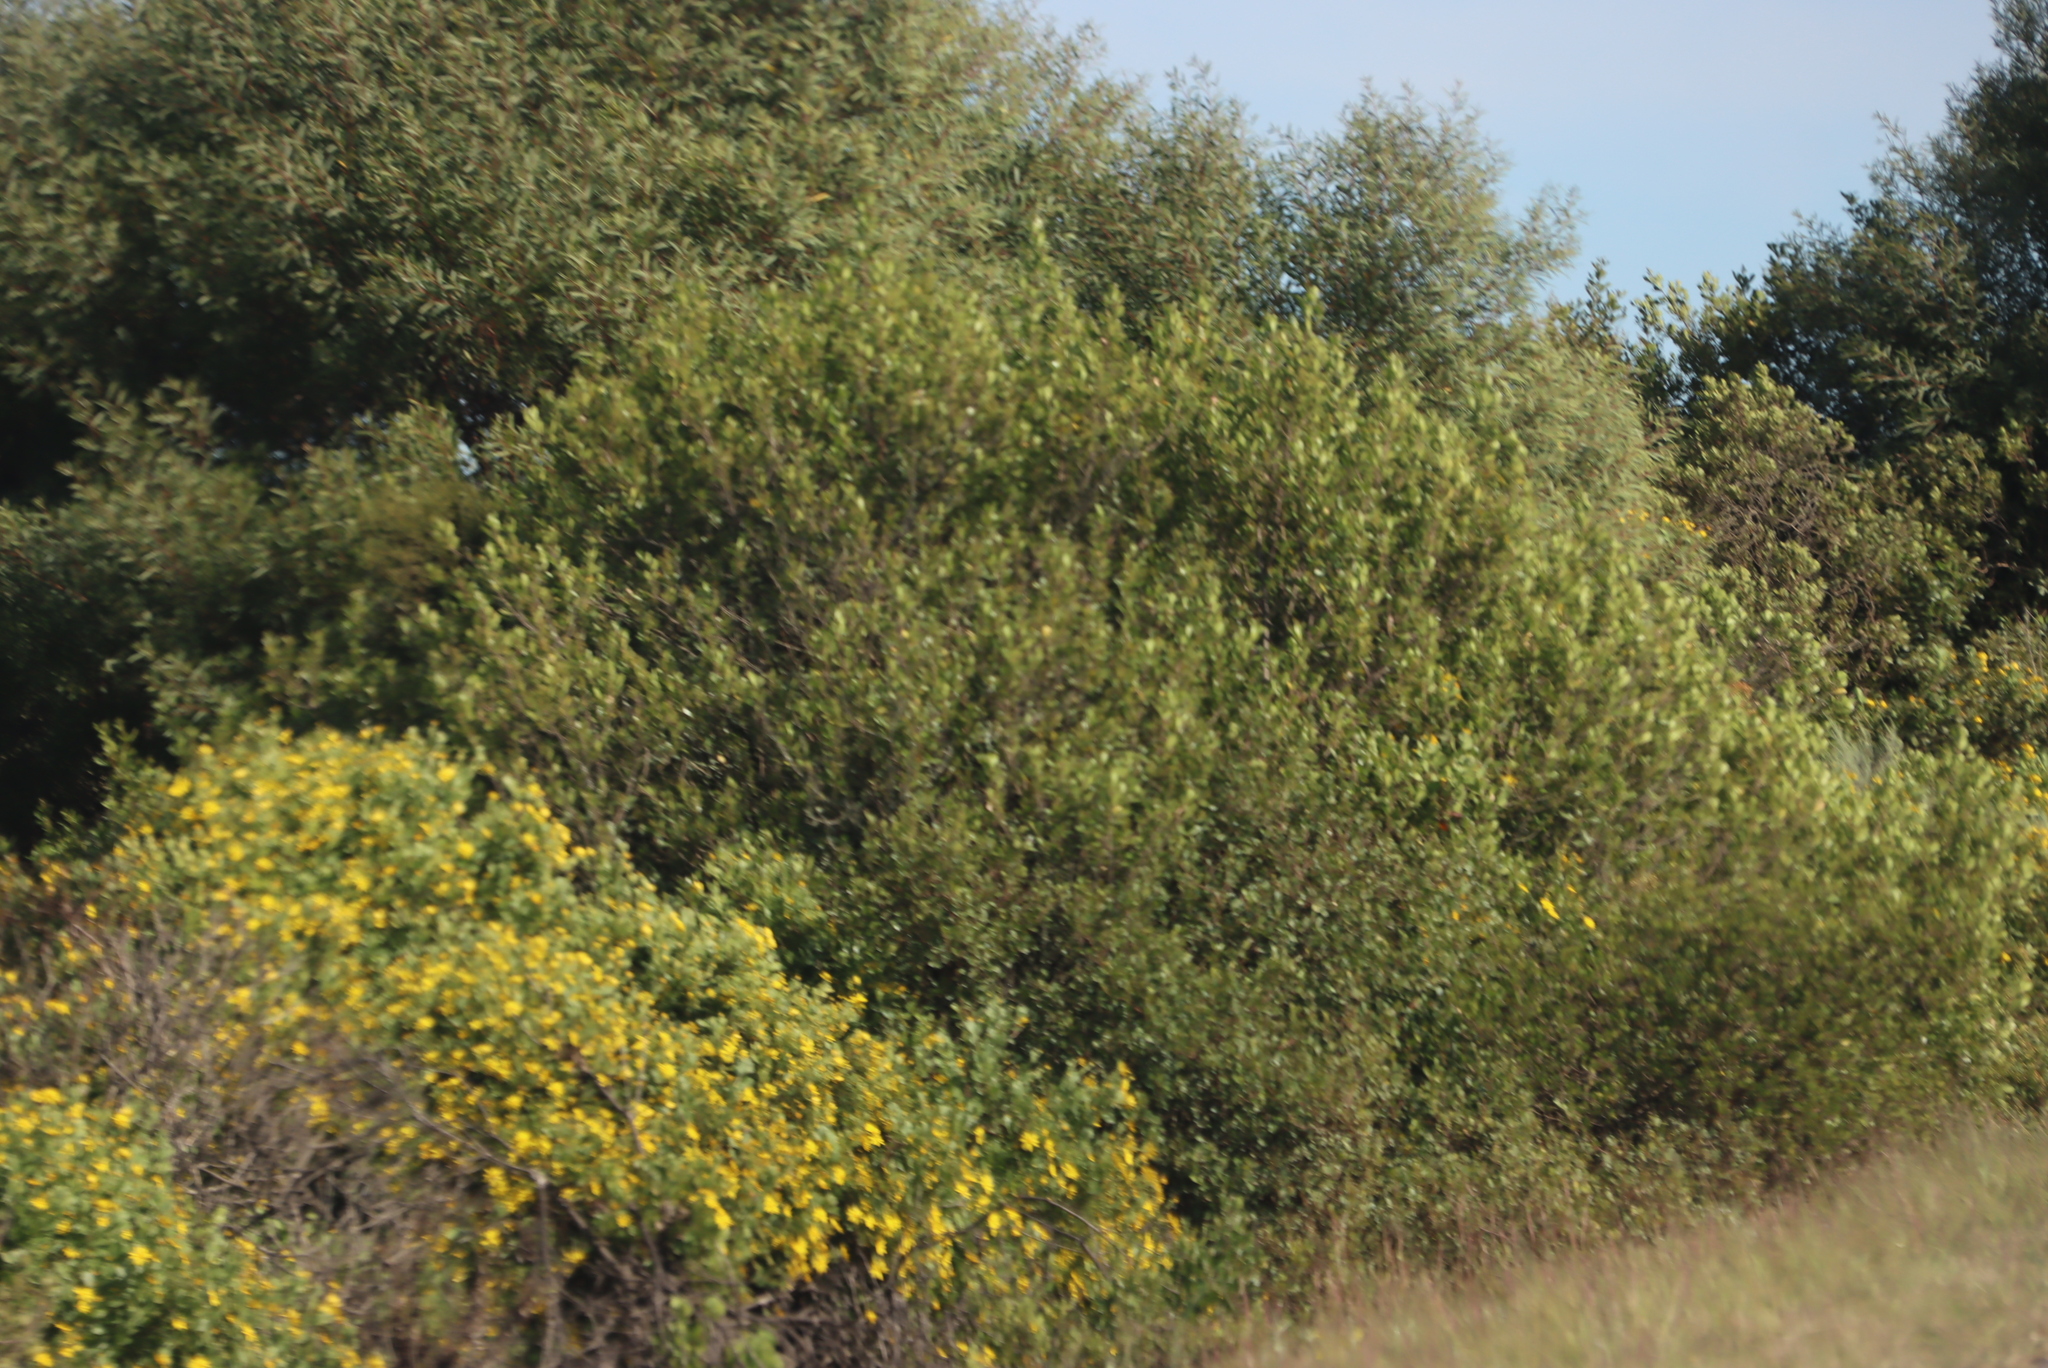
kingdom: Plantae
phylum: Tracheophyta
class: Magnoliopsida
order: Fabales
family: Fabaceae
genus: Acacia
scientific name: Acacia cyclops
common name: Coastal wattle
